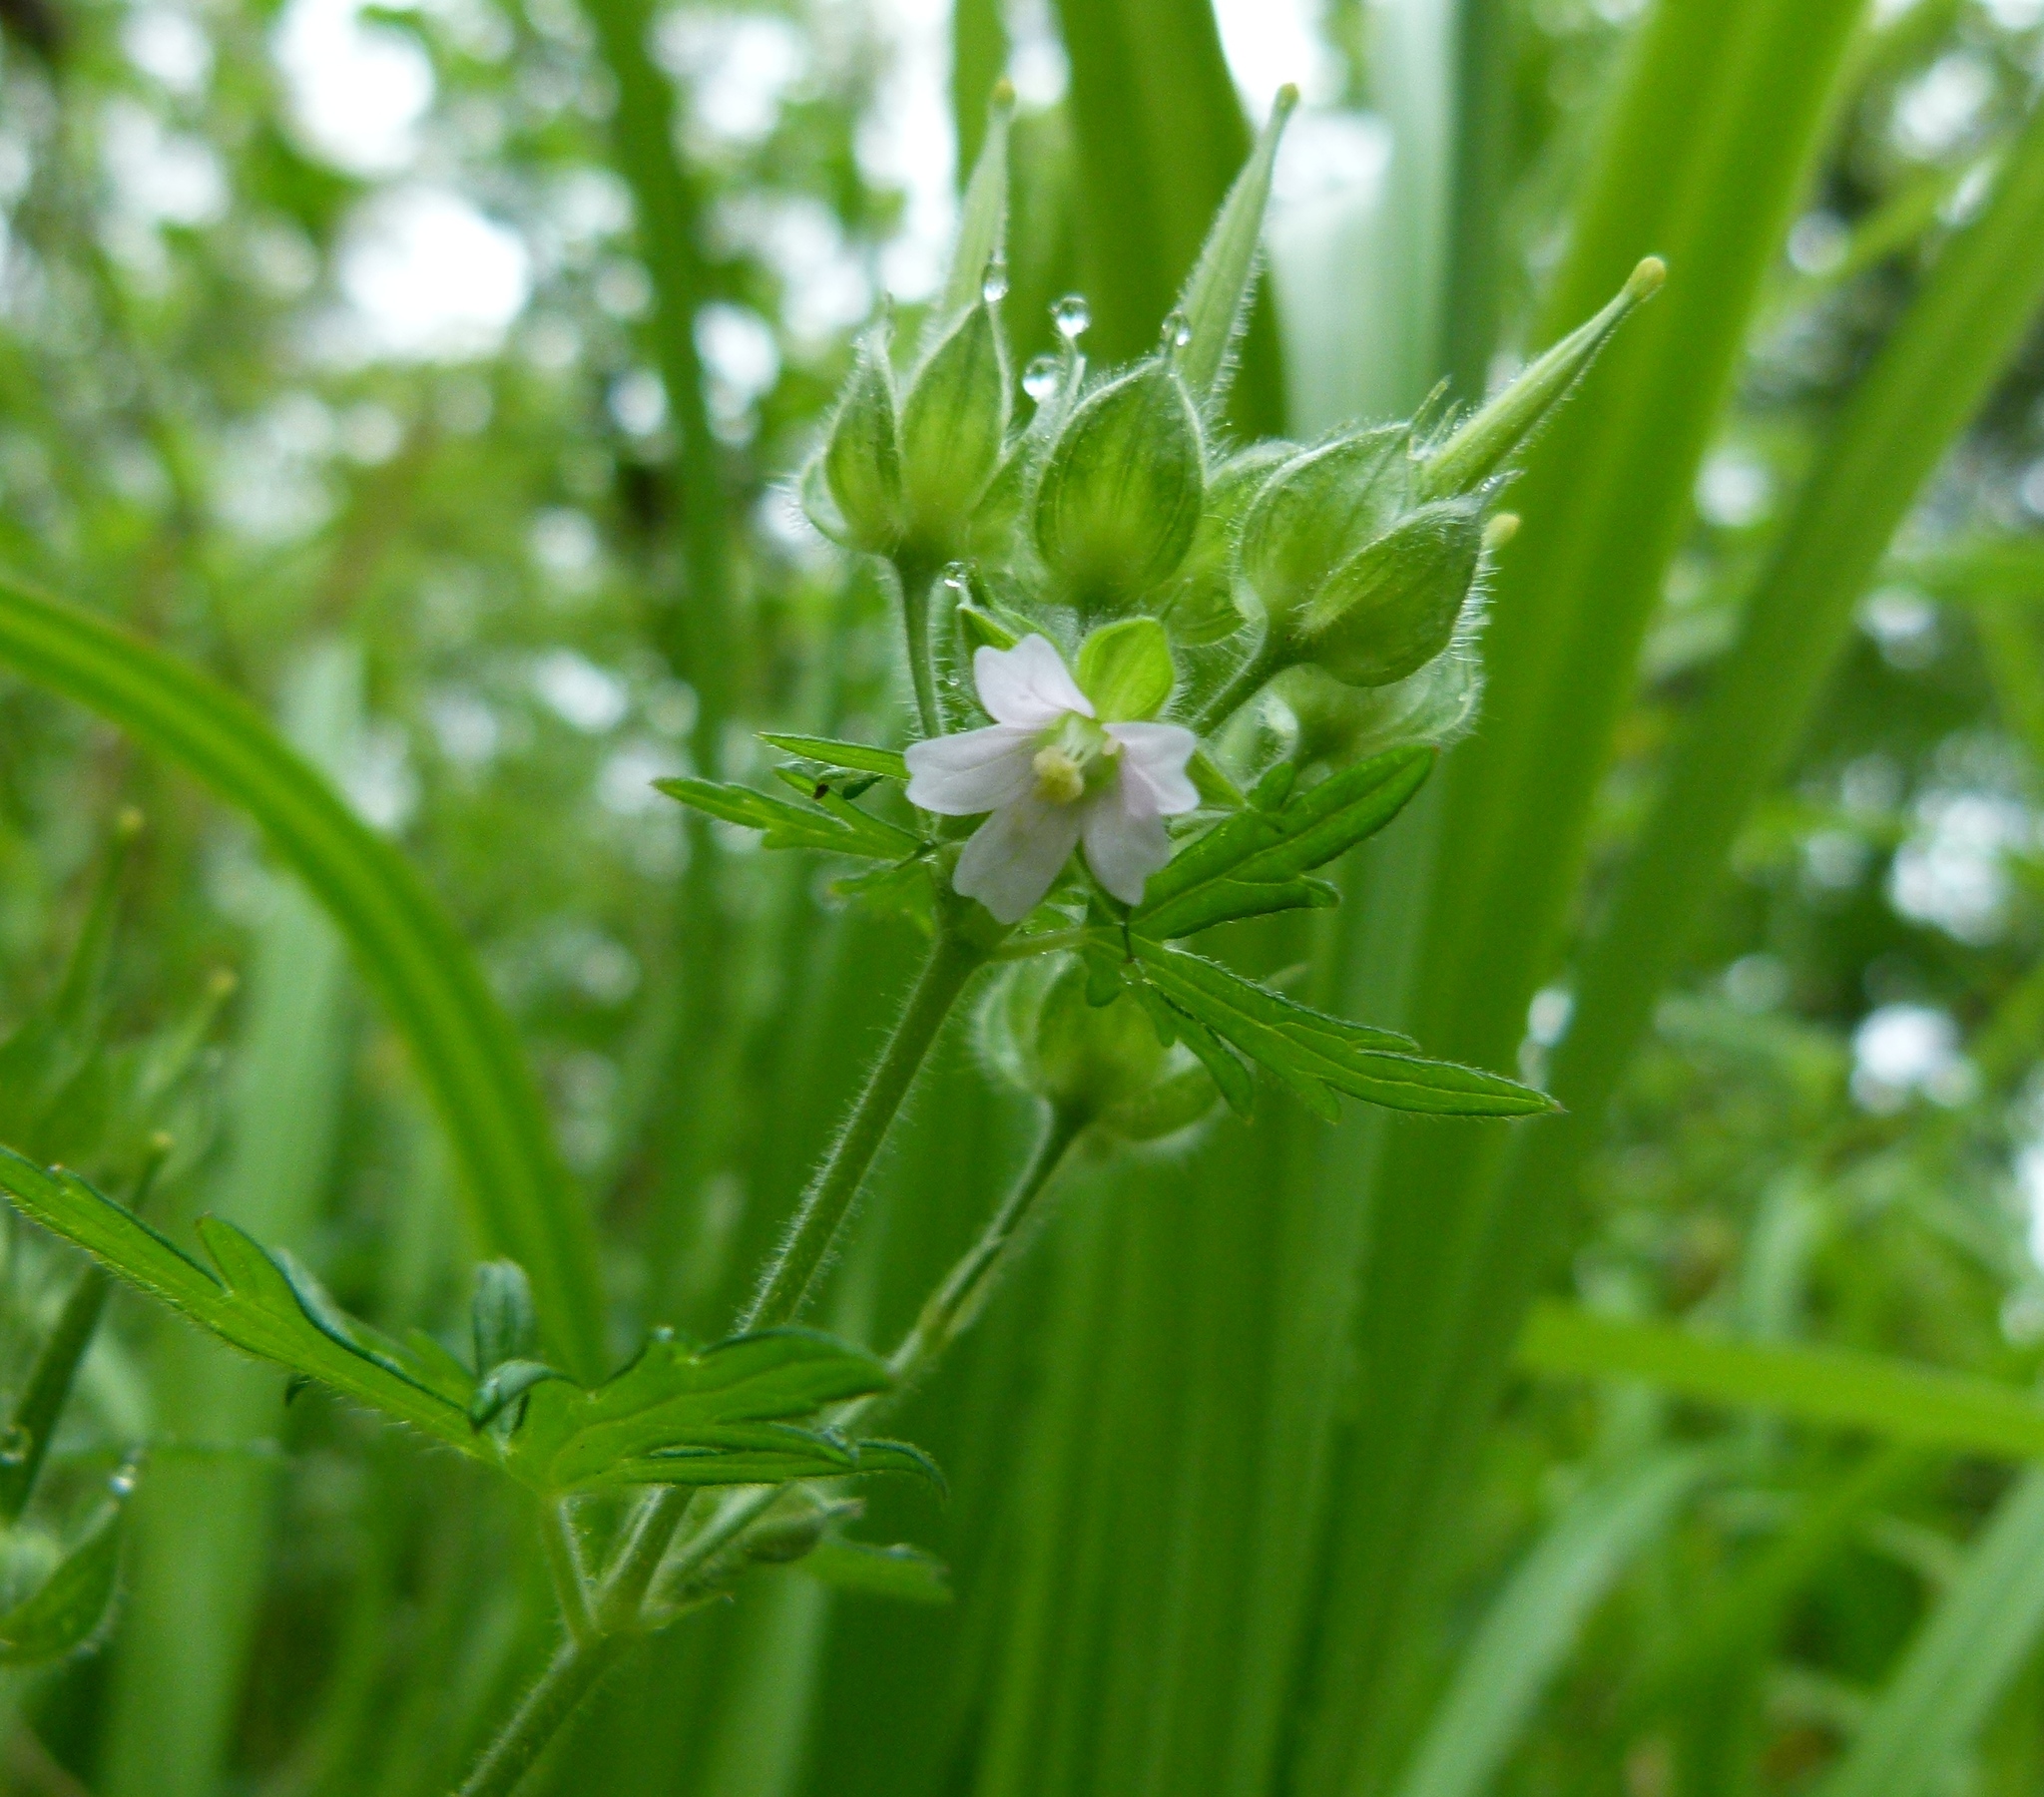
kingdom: Plantae
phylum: Tracheophyta
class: Magnoliopsida
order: Geraniales
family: Geraniaceae
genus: Geranium
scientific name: Geranium carolinianum
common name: Carolina crane's-bill
